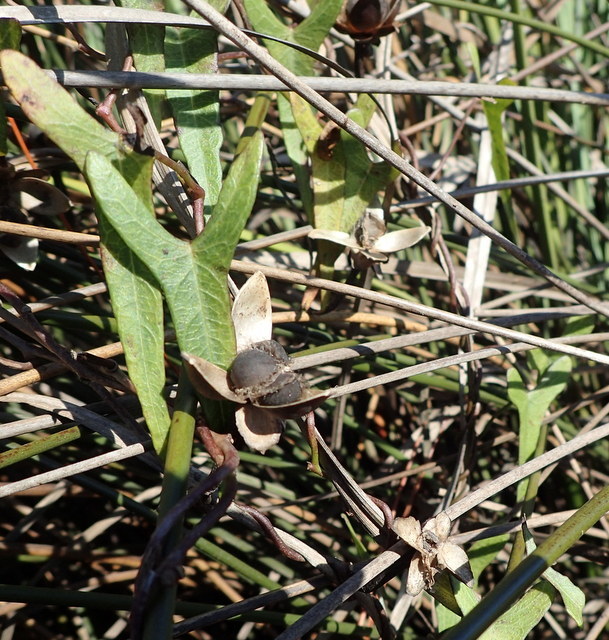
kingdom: Plantae
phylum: Tracheophyta
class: Magnoliopsida
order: Solanales
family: Convolvulaceae
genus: Ipomoea
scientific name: Ipomoea sagittata
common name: Saltmarsh morning glory
